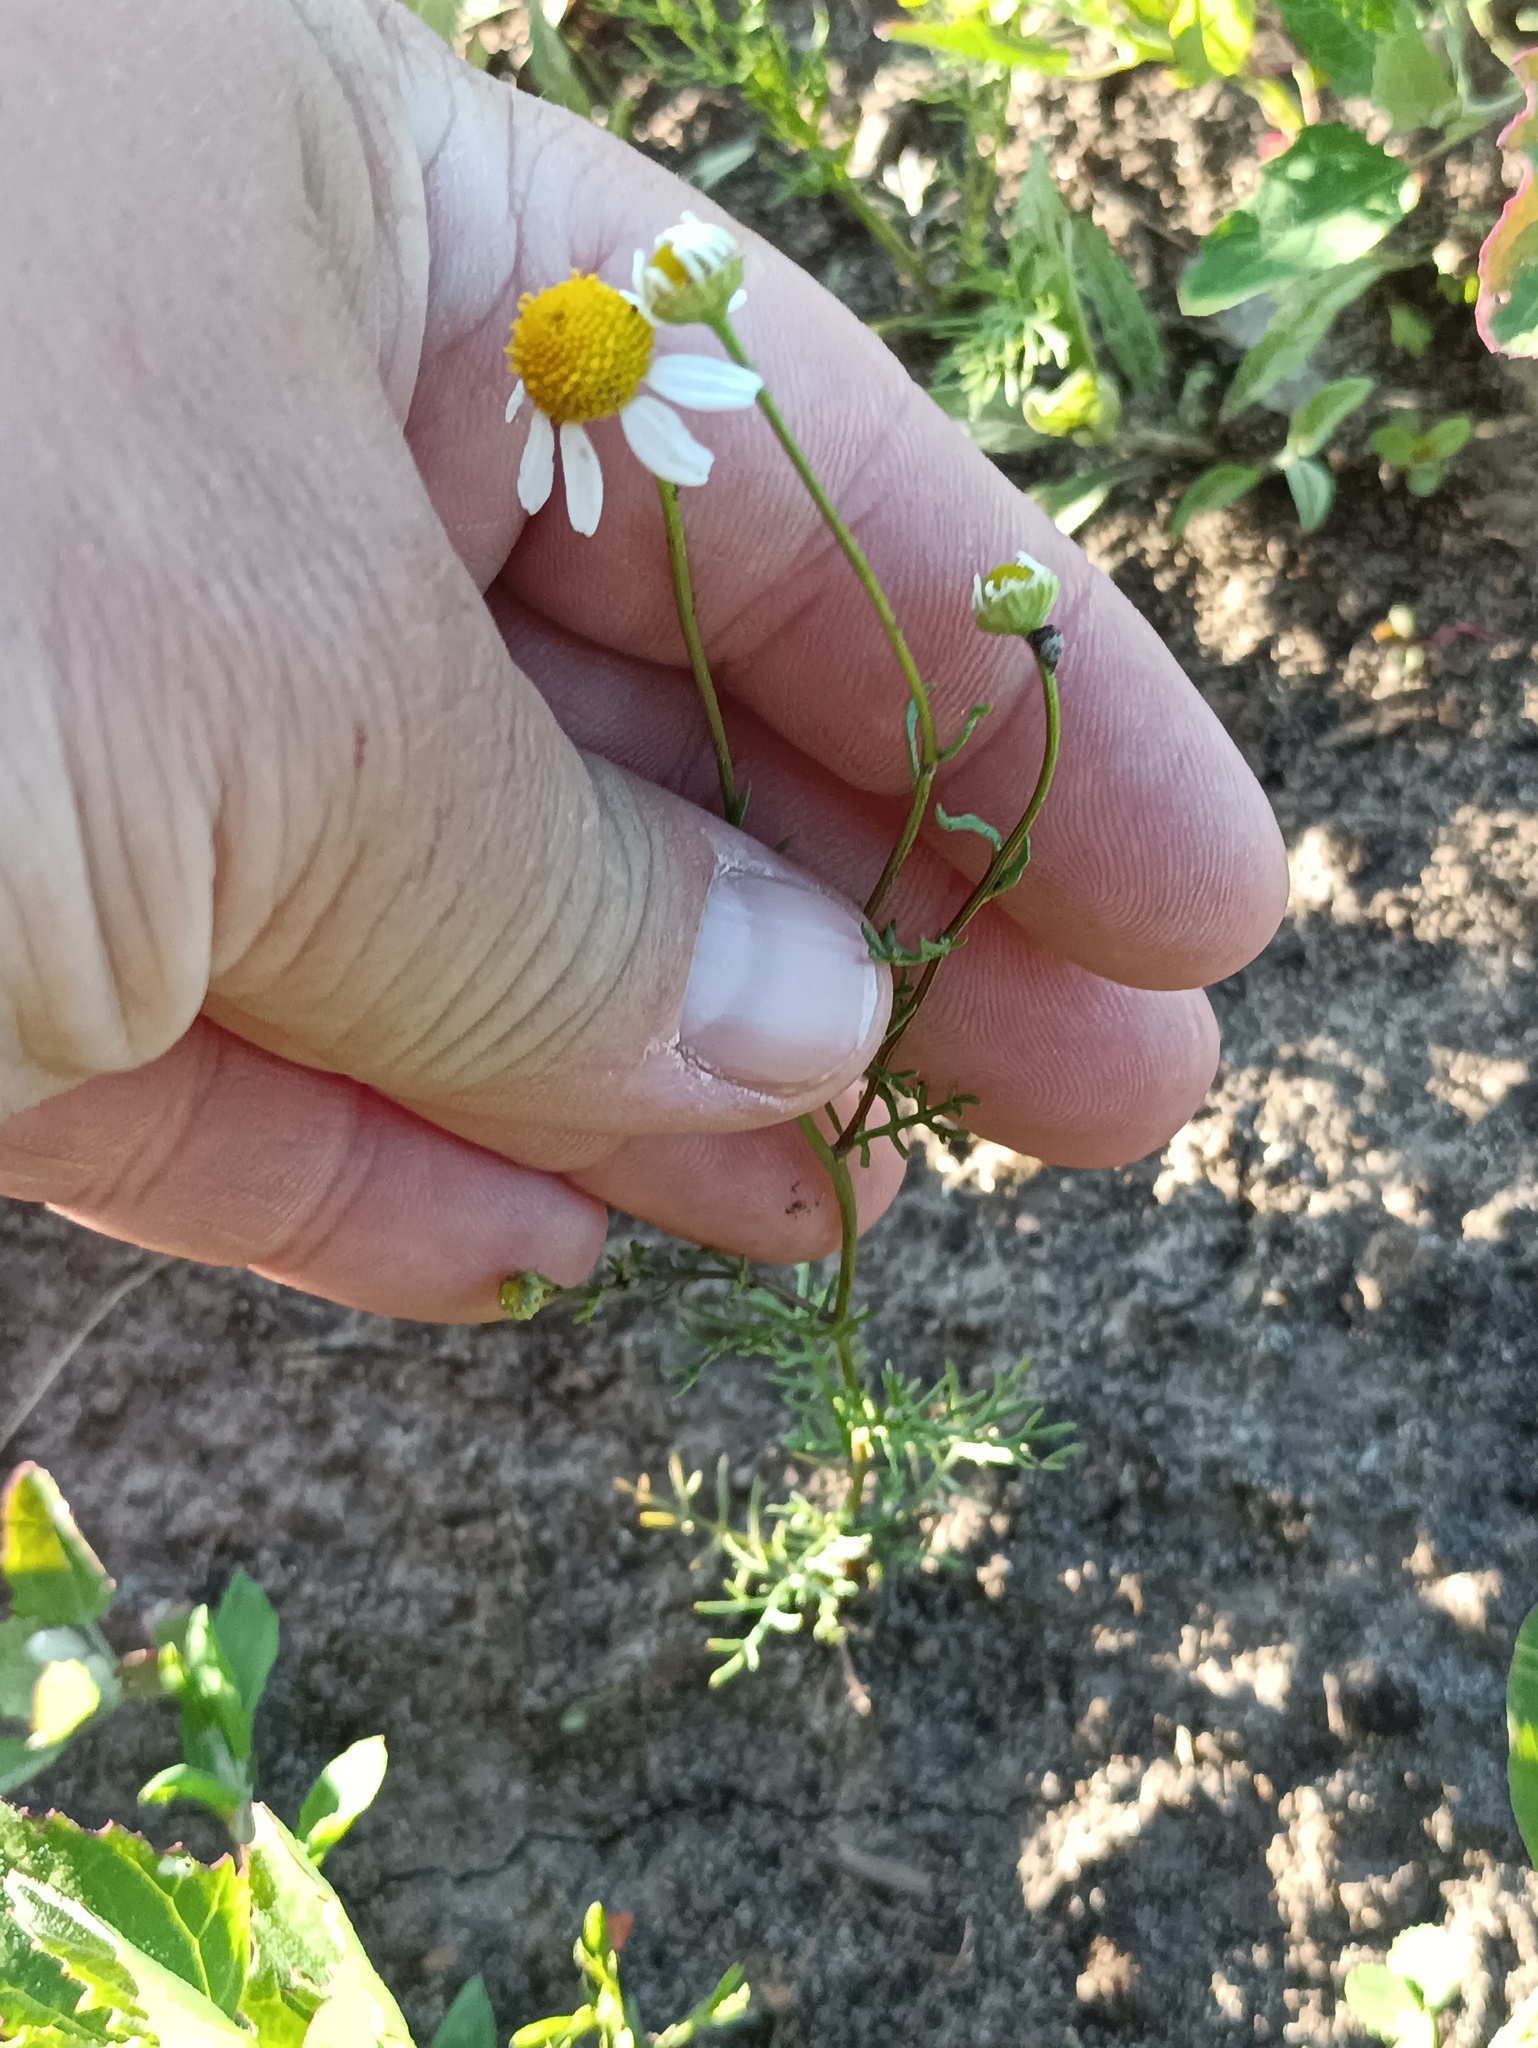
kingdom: Plantae
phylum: Tracheophyta
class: Magnoliopsida
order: Asterales
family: Asteraceae
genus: Matricaria
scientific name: Matricaria chamomilla
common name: Scented mayweed
